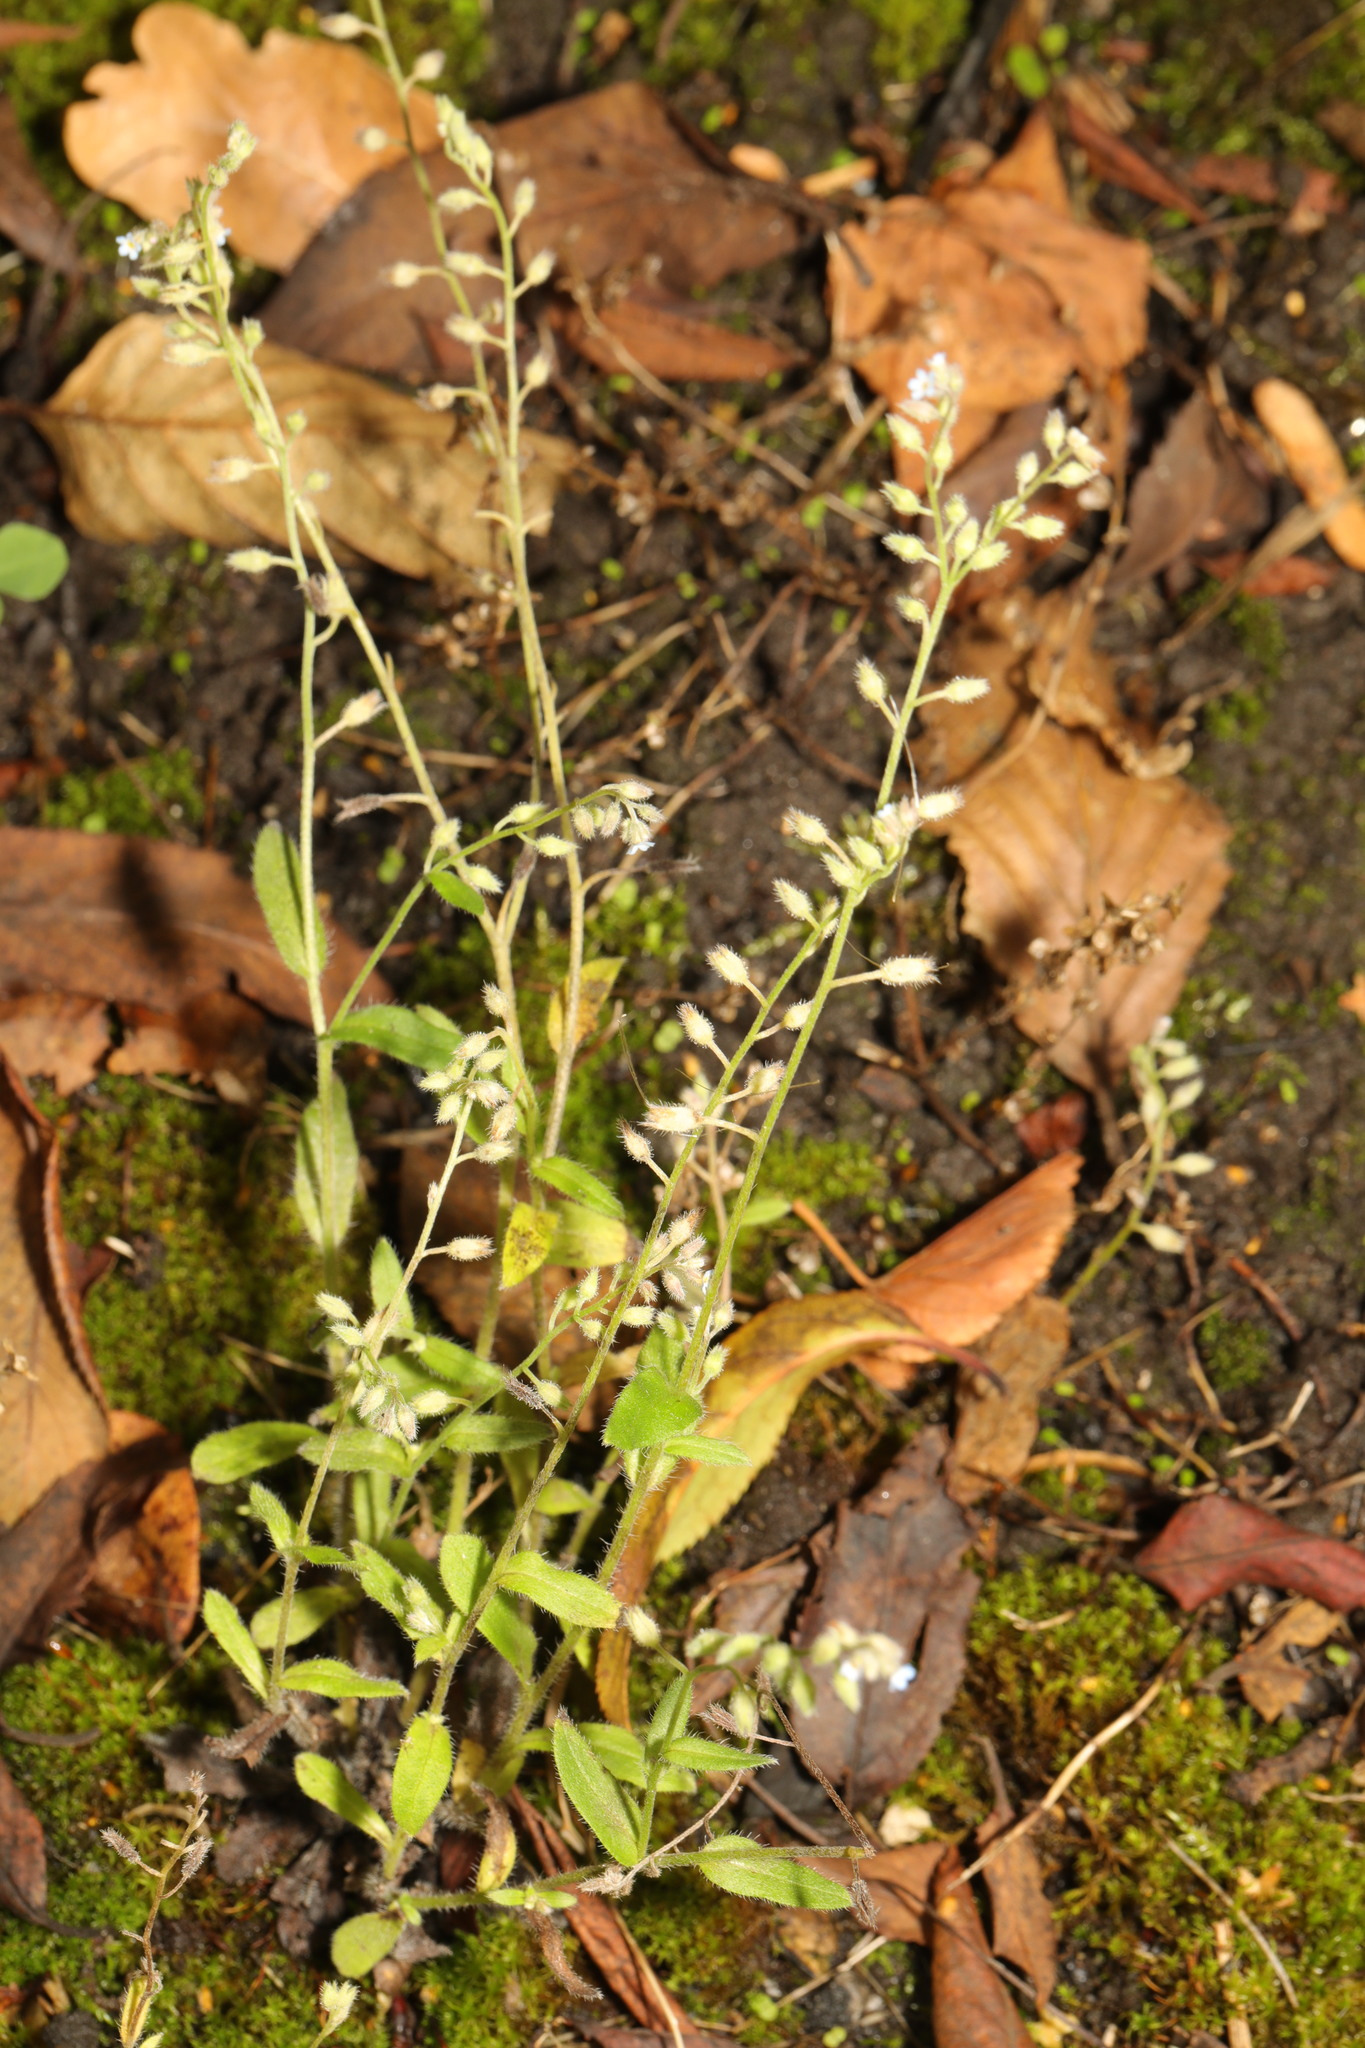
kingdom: Plantae
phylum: Tracheophyta
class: Magnoliopsida
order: Boraginales
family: Boraginaceae
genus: Myosotis
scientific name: Myosotis arvensis
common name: Field forget-me-not
